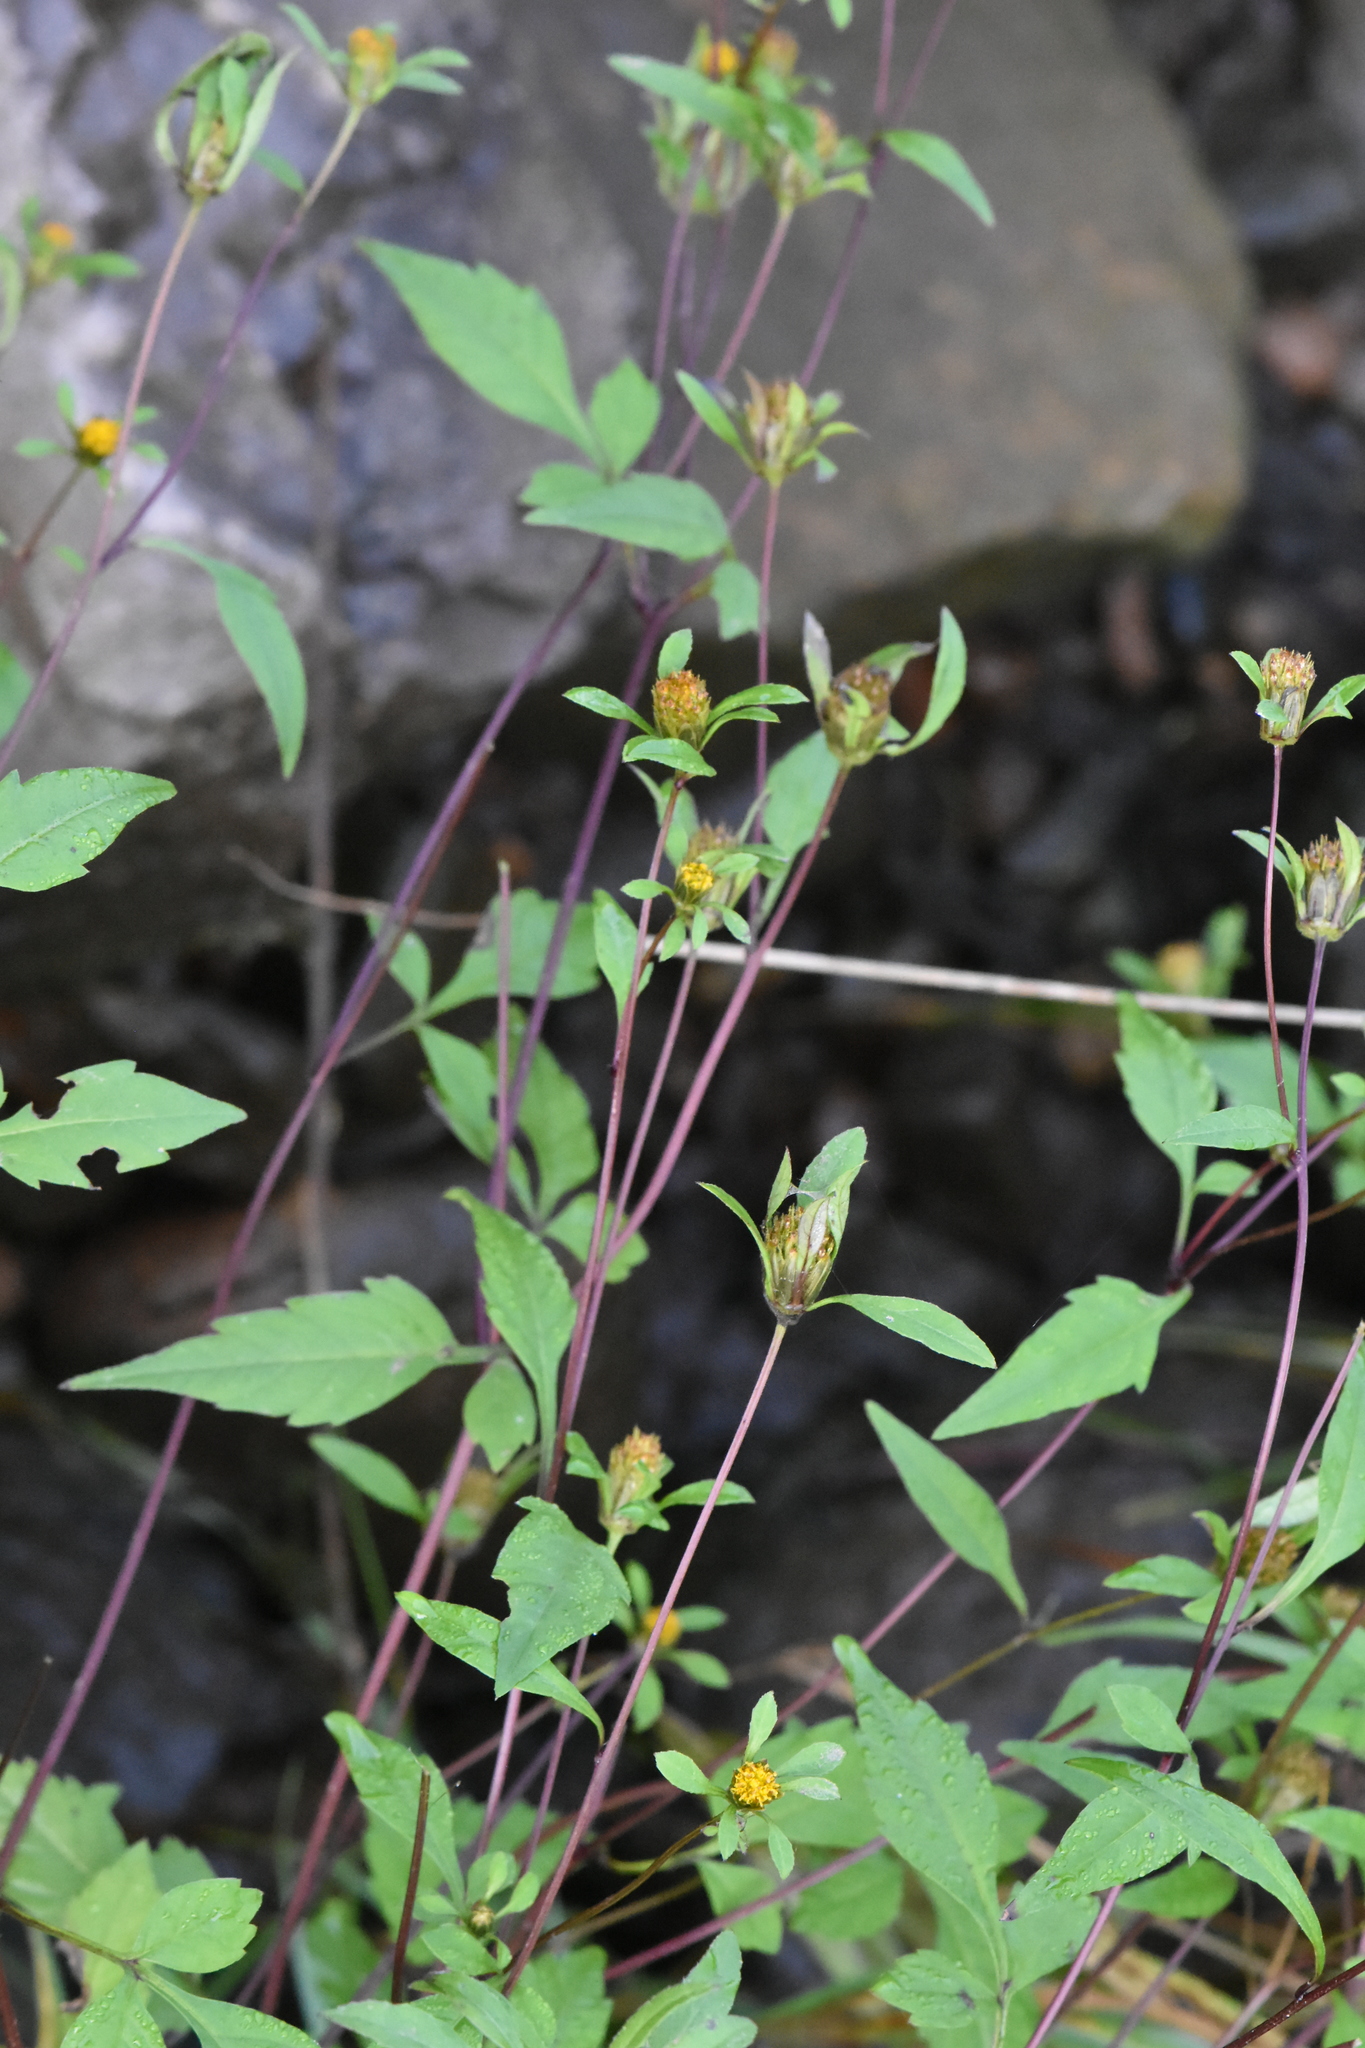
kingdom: Plantae
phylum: Tracheophyta
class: Magnoliopsida
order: Asterales
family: Asteraceae
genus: Bidens
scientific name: Bidens frondosa
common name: Beggarticks
